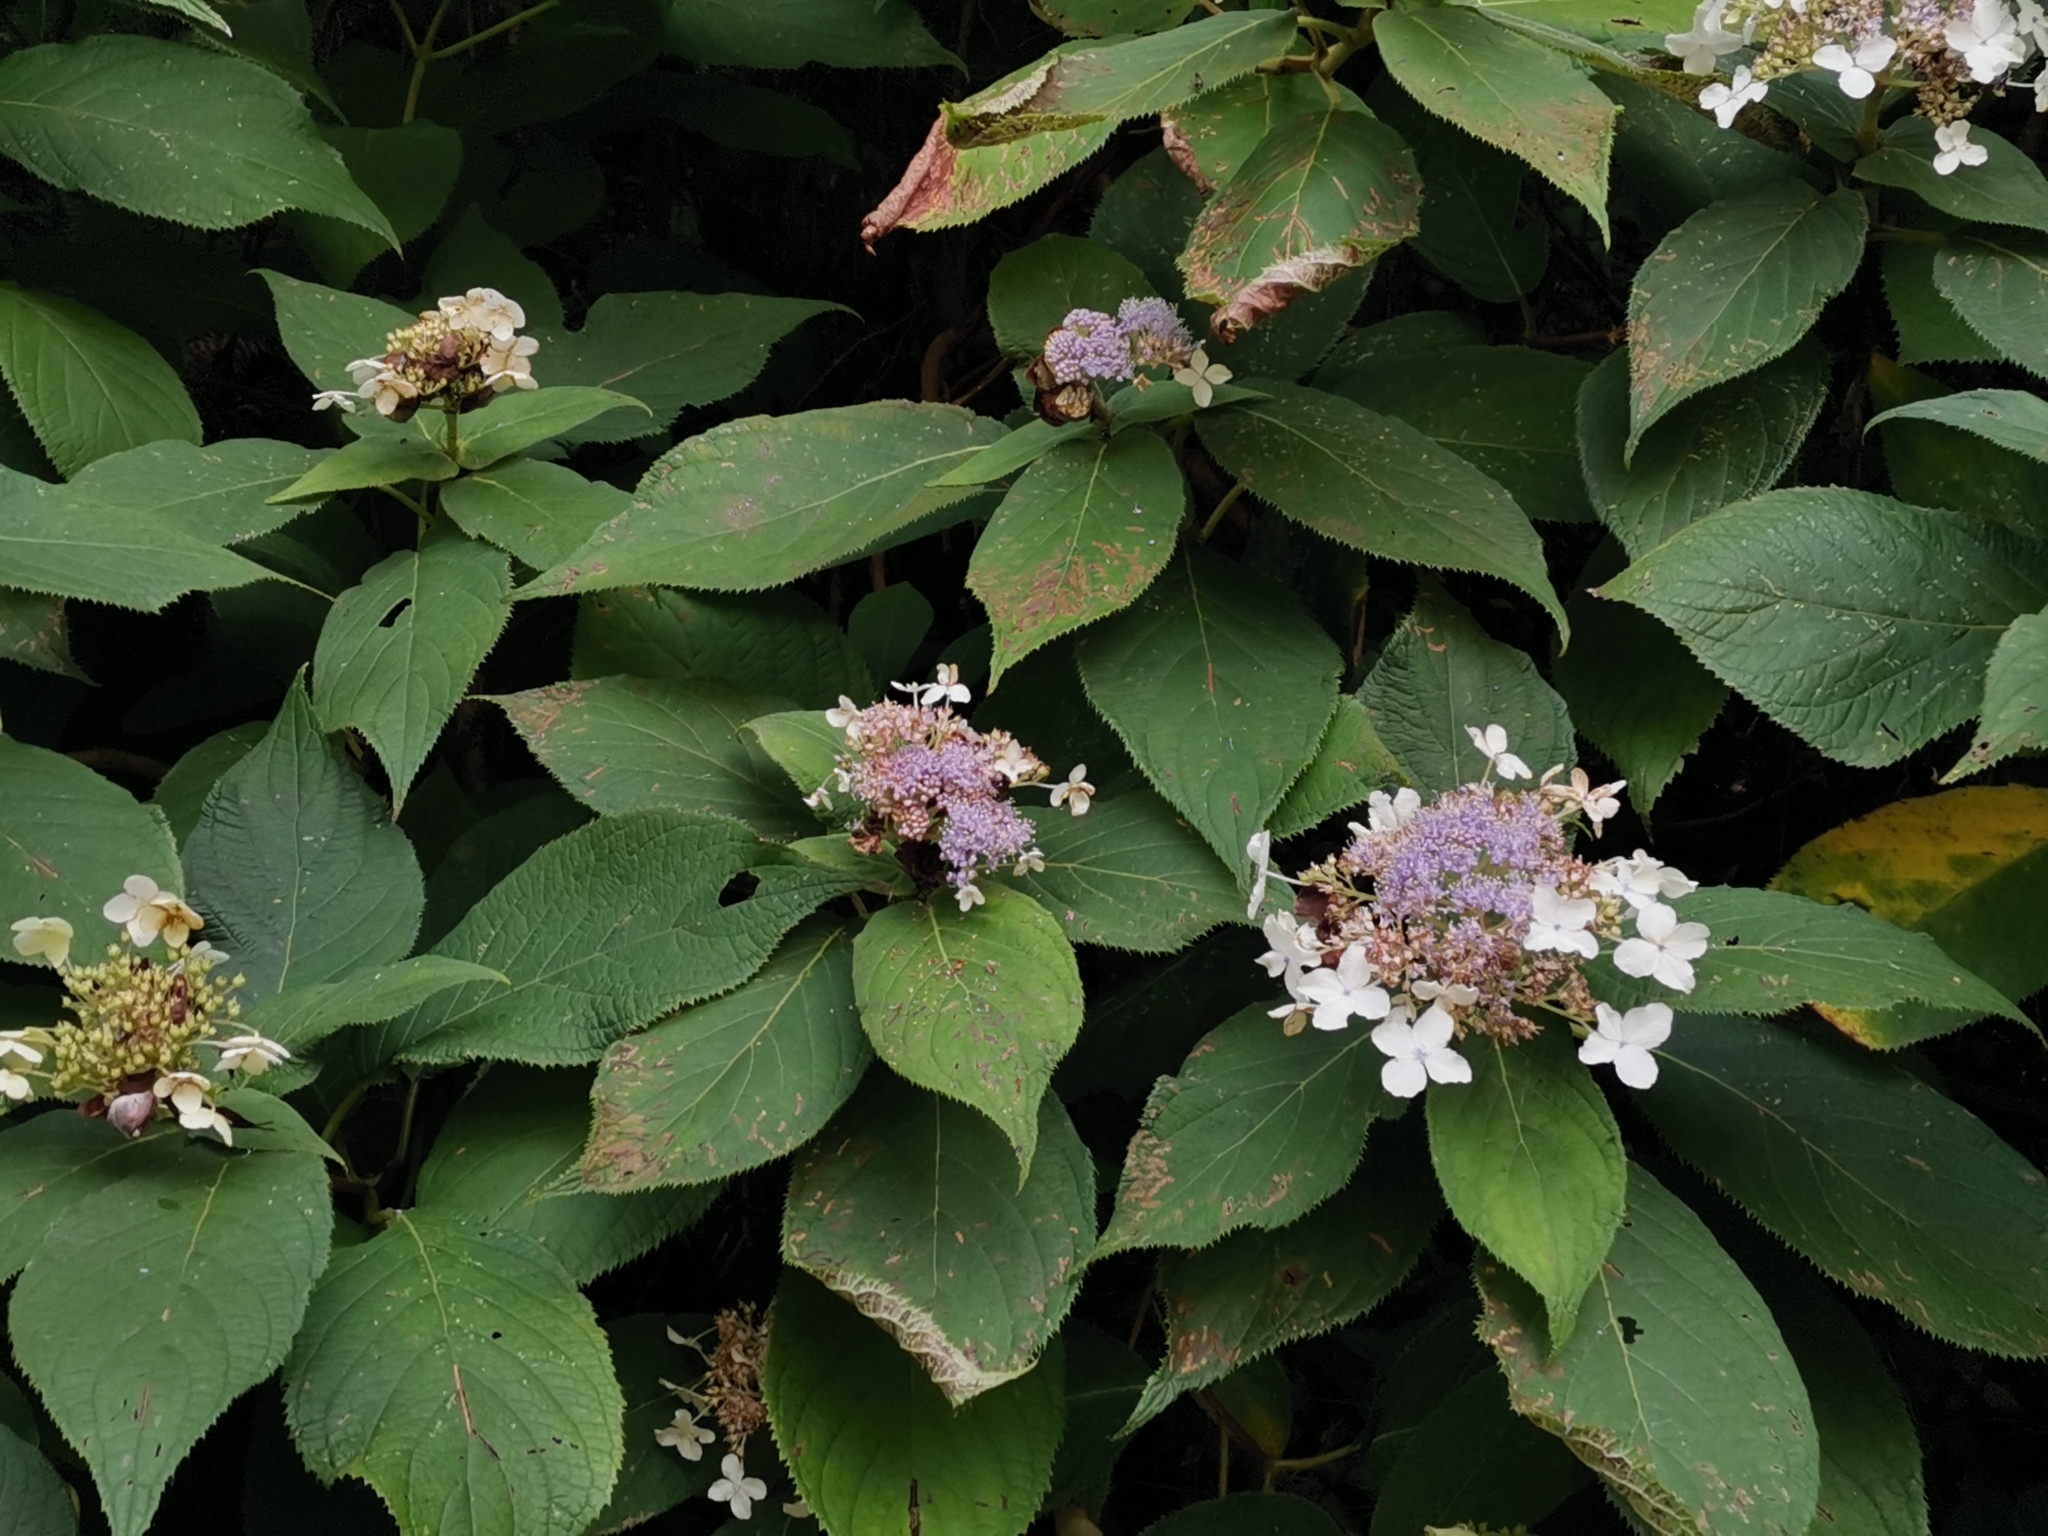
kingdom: Plantae
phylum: Tracheophyta
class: Magnoliopsida
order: Cornales
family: Hydrangeaceae
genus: Hydrangea
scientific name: Hydrangea involucrata
